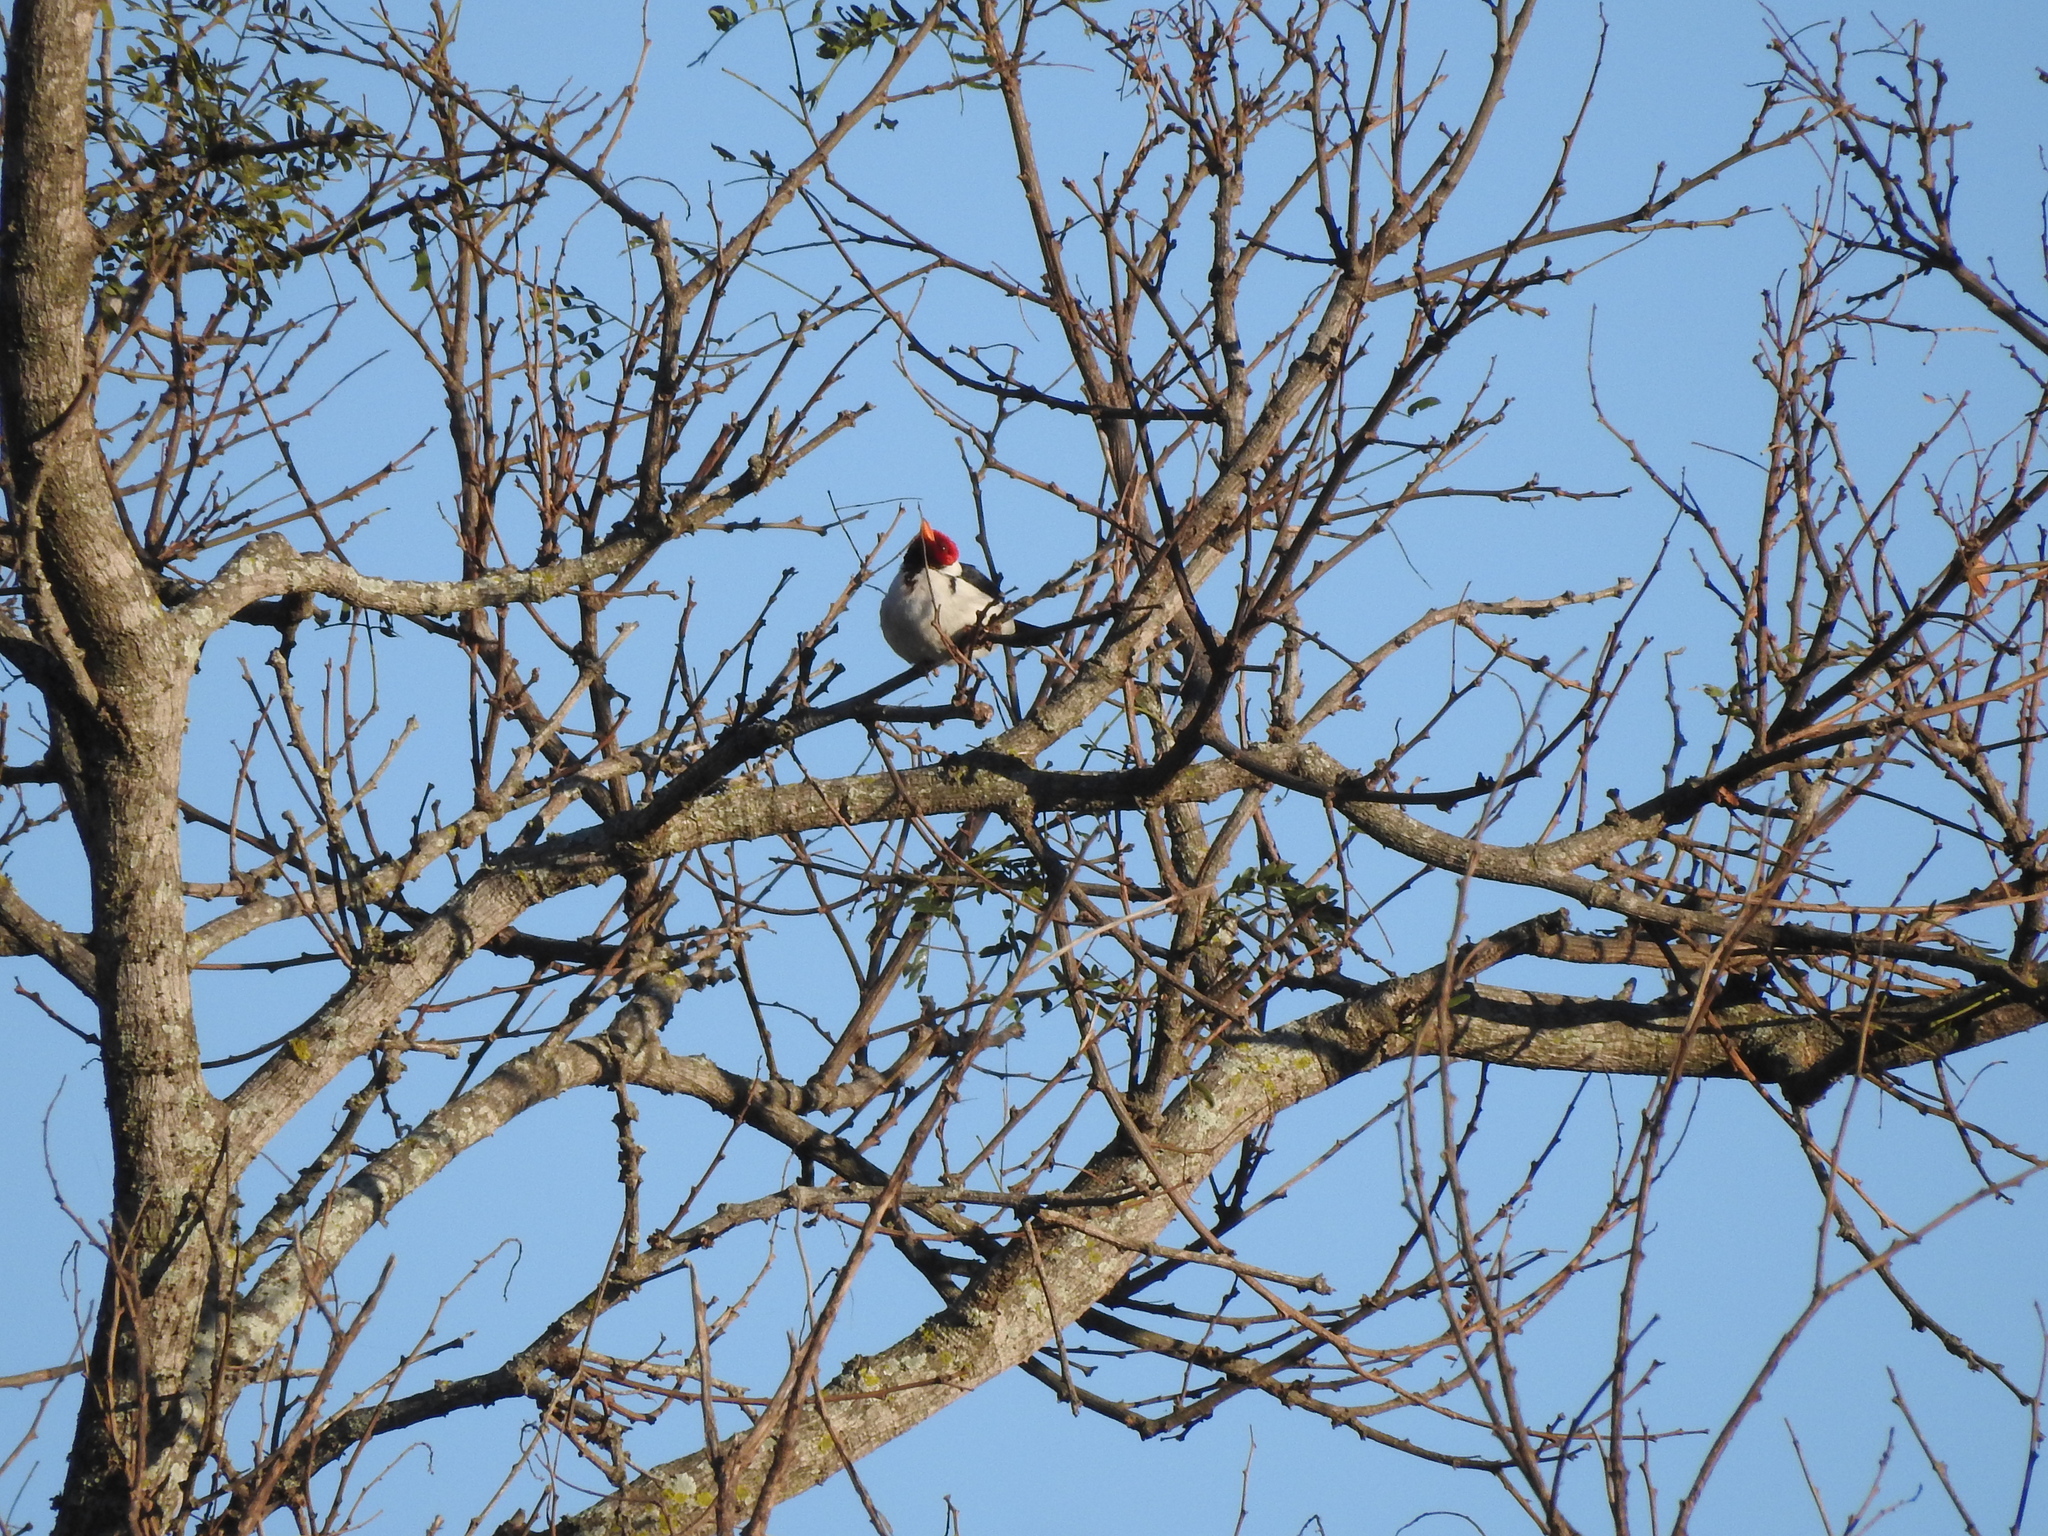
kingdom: Animalia
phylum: Chordata
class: Aves
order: Passeriformes
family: Thraupidae
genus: Paroaria
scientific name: Paroaria capitata
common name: Yellow-billed cardinal
